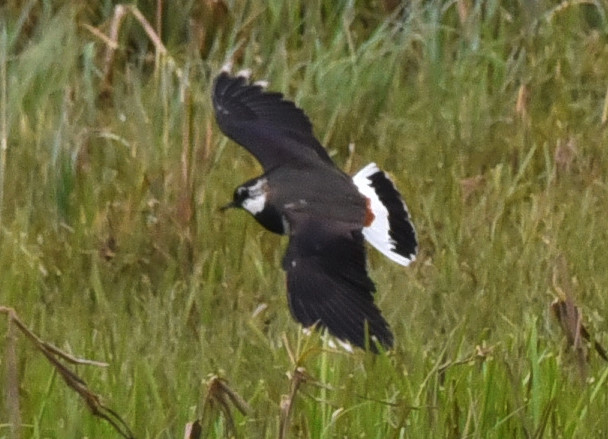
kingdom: Animalia
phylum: Chordata
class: Aves
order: Charadriiformes
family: Charadriidae
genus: Vanellus
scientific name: Vanellus vanellus
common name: Northern lapwing
